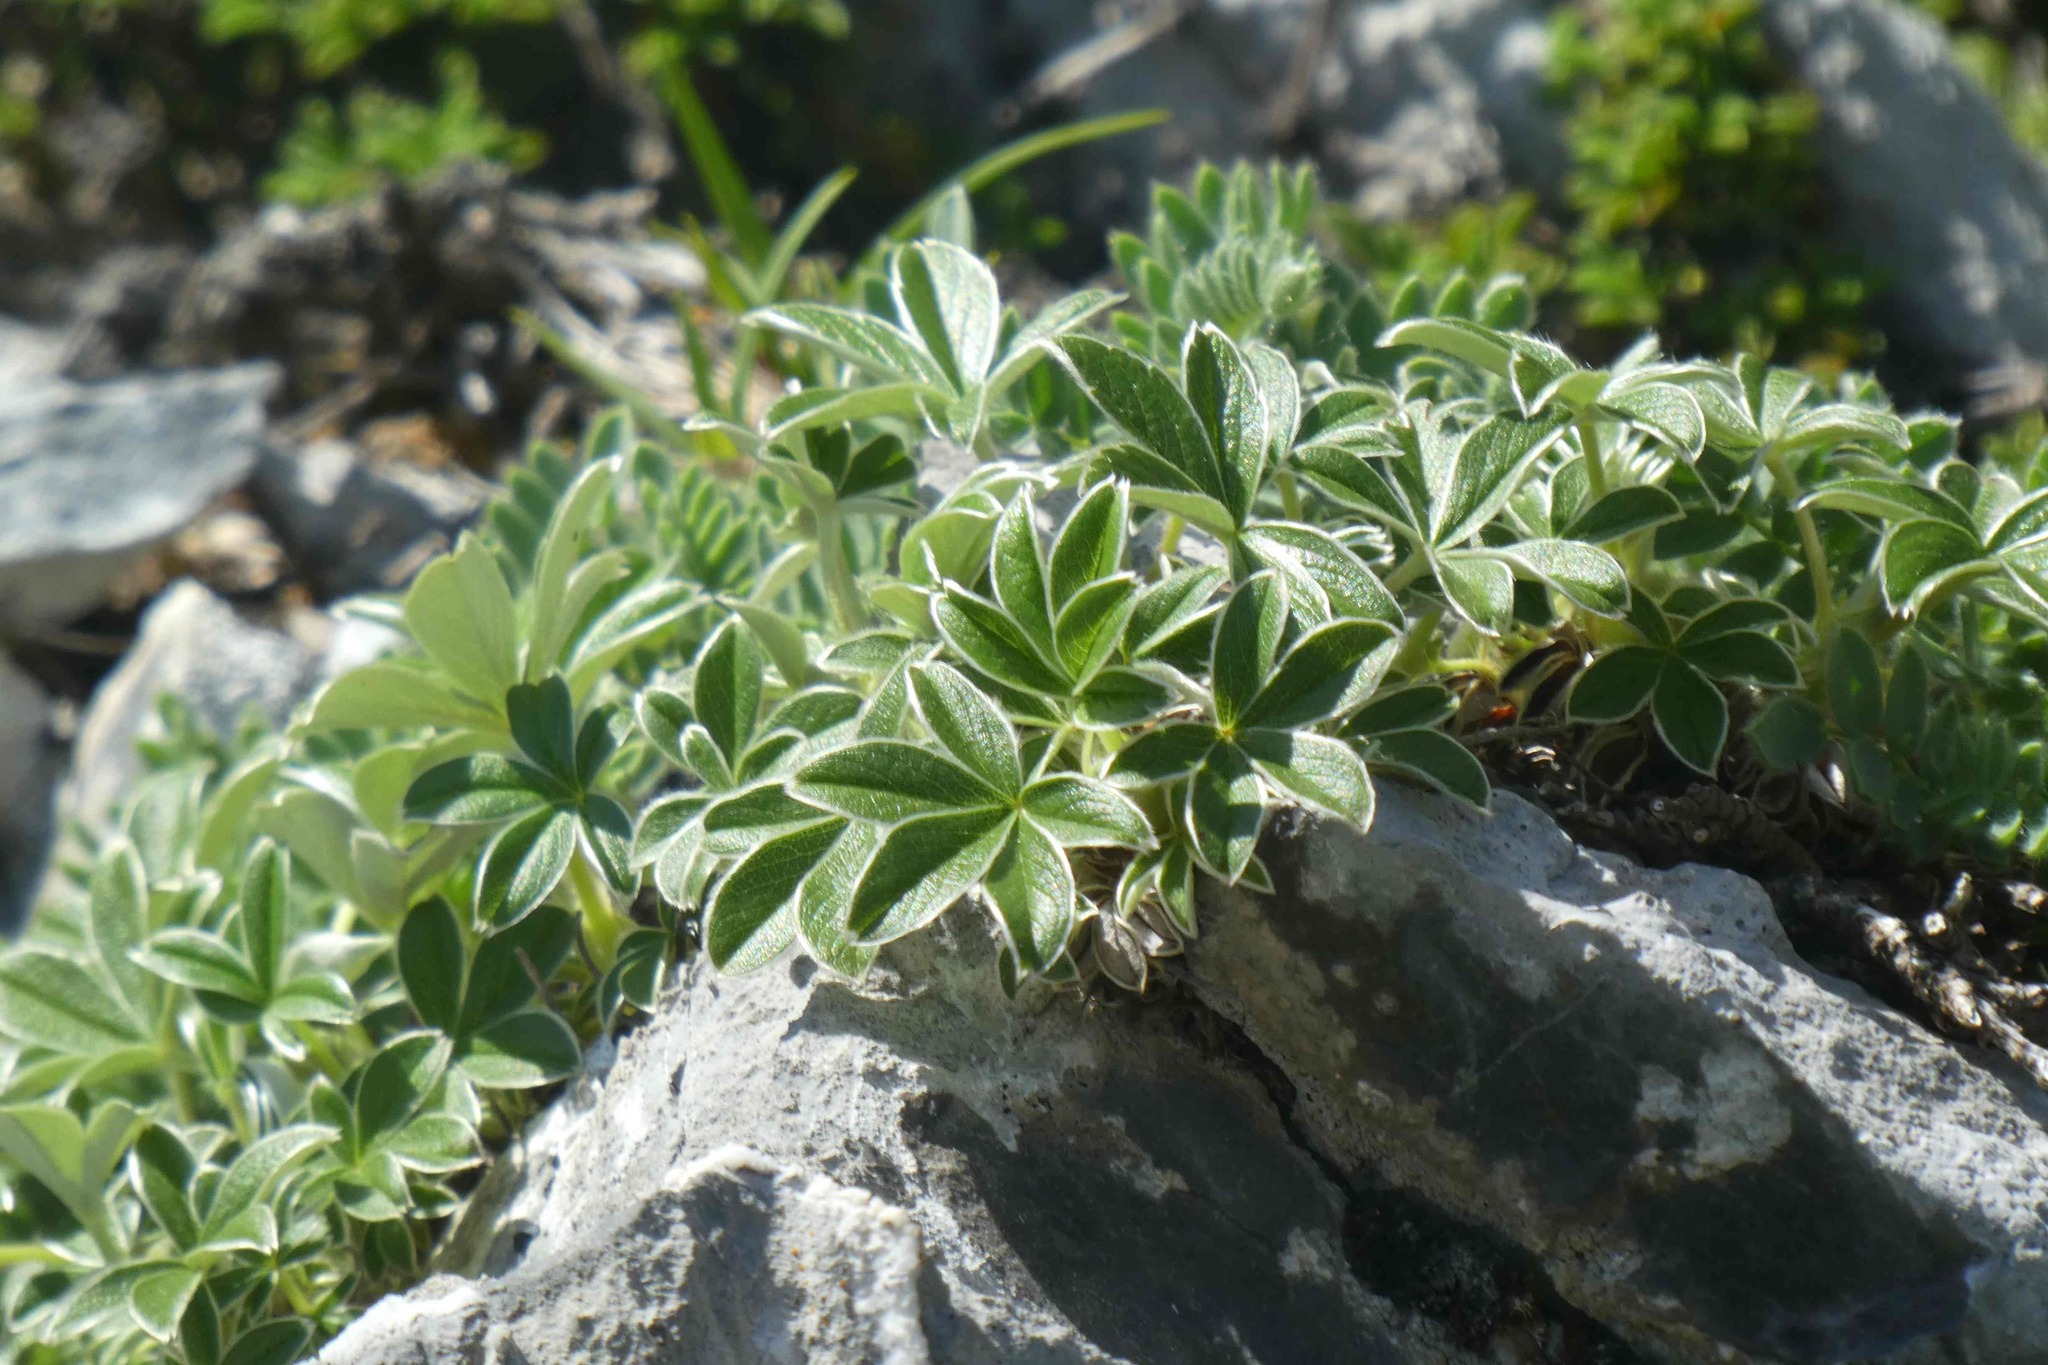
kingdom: Plantae
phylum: Tracheophyta
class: Magnoliopsida
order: Rosales
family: Rosaceae
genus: Potentilla
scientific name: Potentilla alchimilloides
